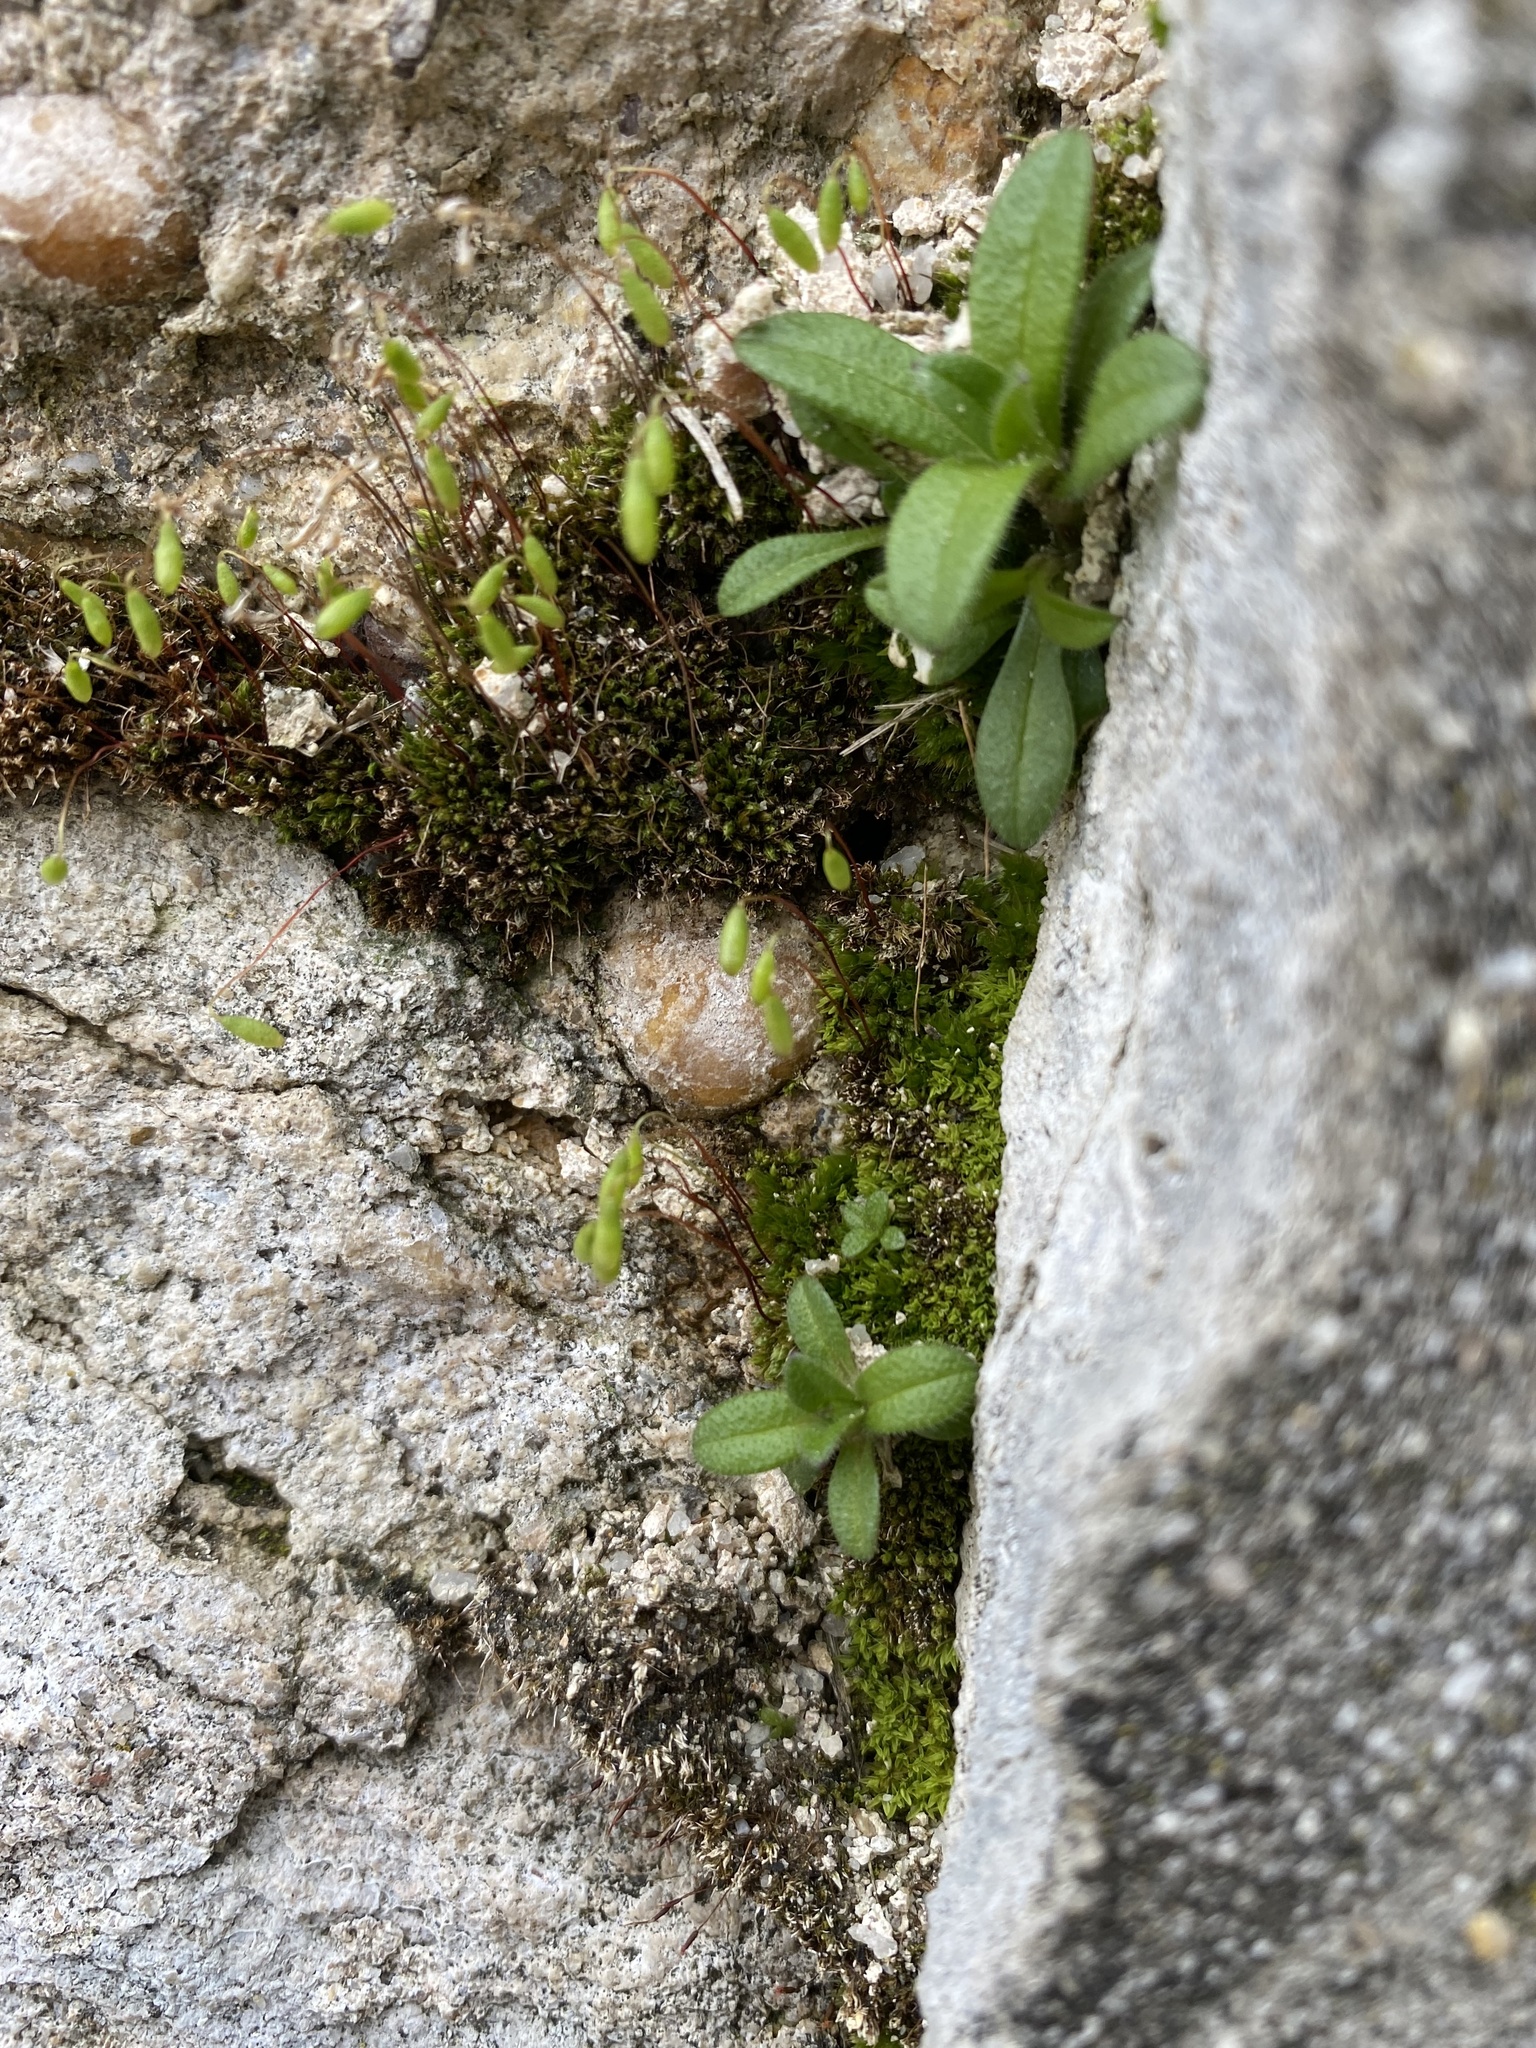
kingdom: Plantae
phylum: Bryophyta
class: Bryopsida
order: Funariales
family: Funariaceae
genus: Funaria
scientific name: Funaria hygrometrica
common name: Common cord moss
